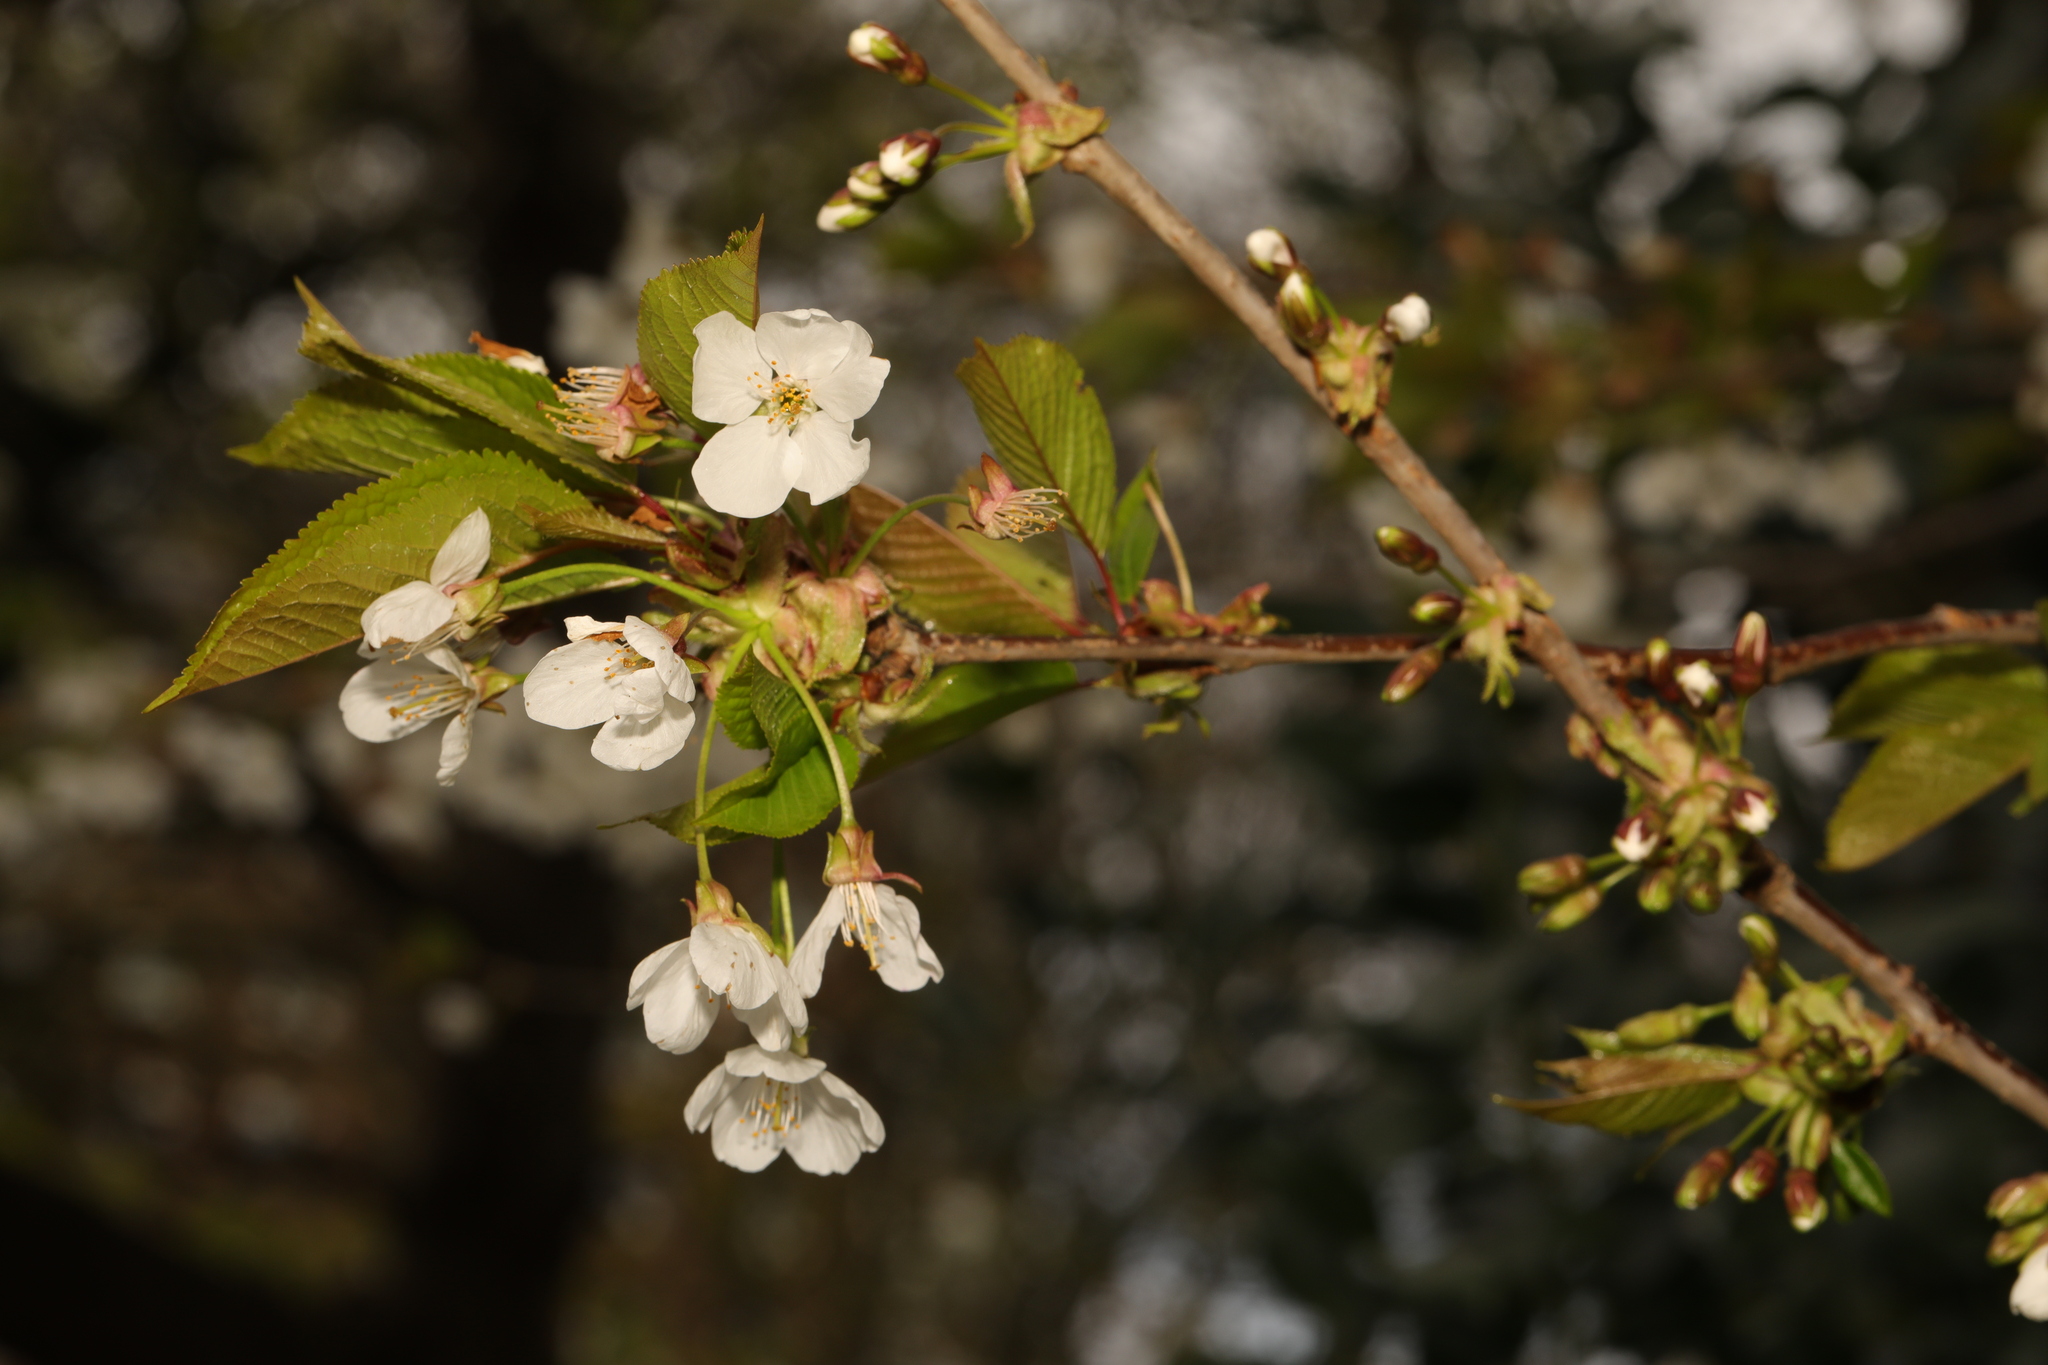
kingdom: Plantae
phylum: Tracheophyta
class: Magnoliopsida
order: Rosales
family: Rosaceae
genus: Prunus
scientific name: Prunus avium
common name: Sweet cherry
